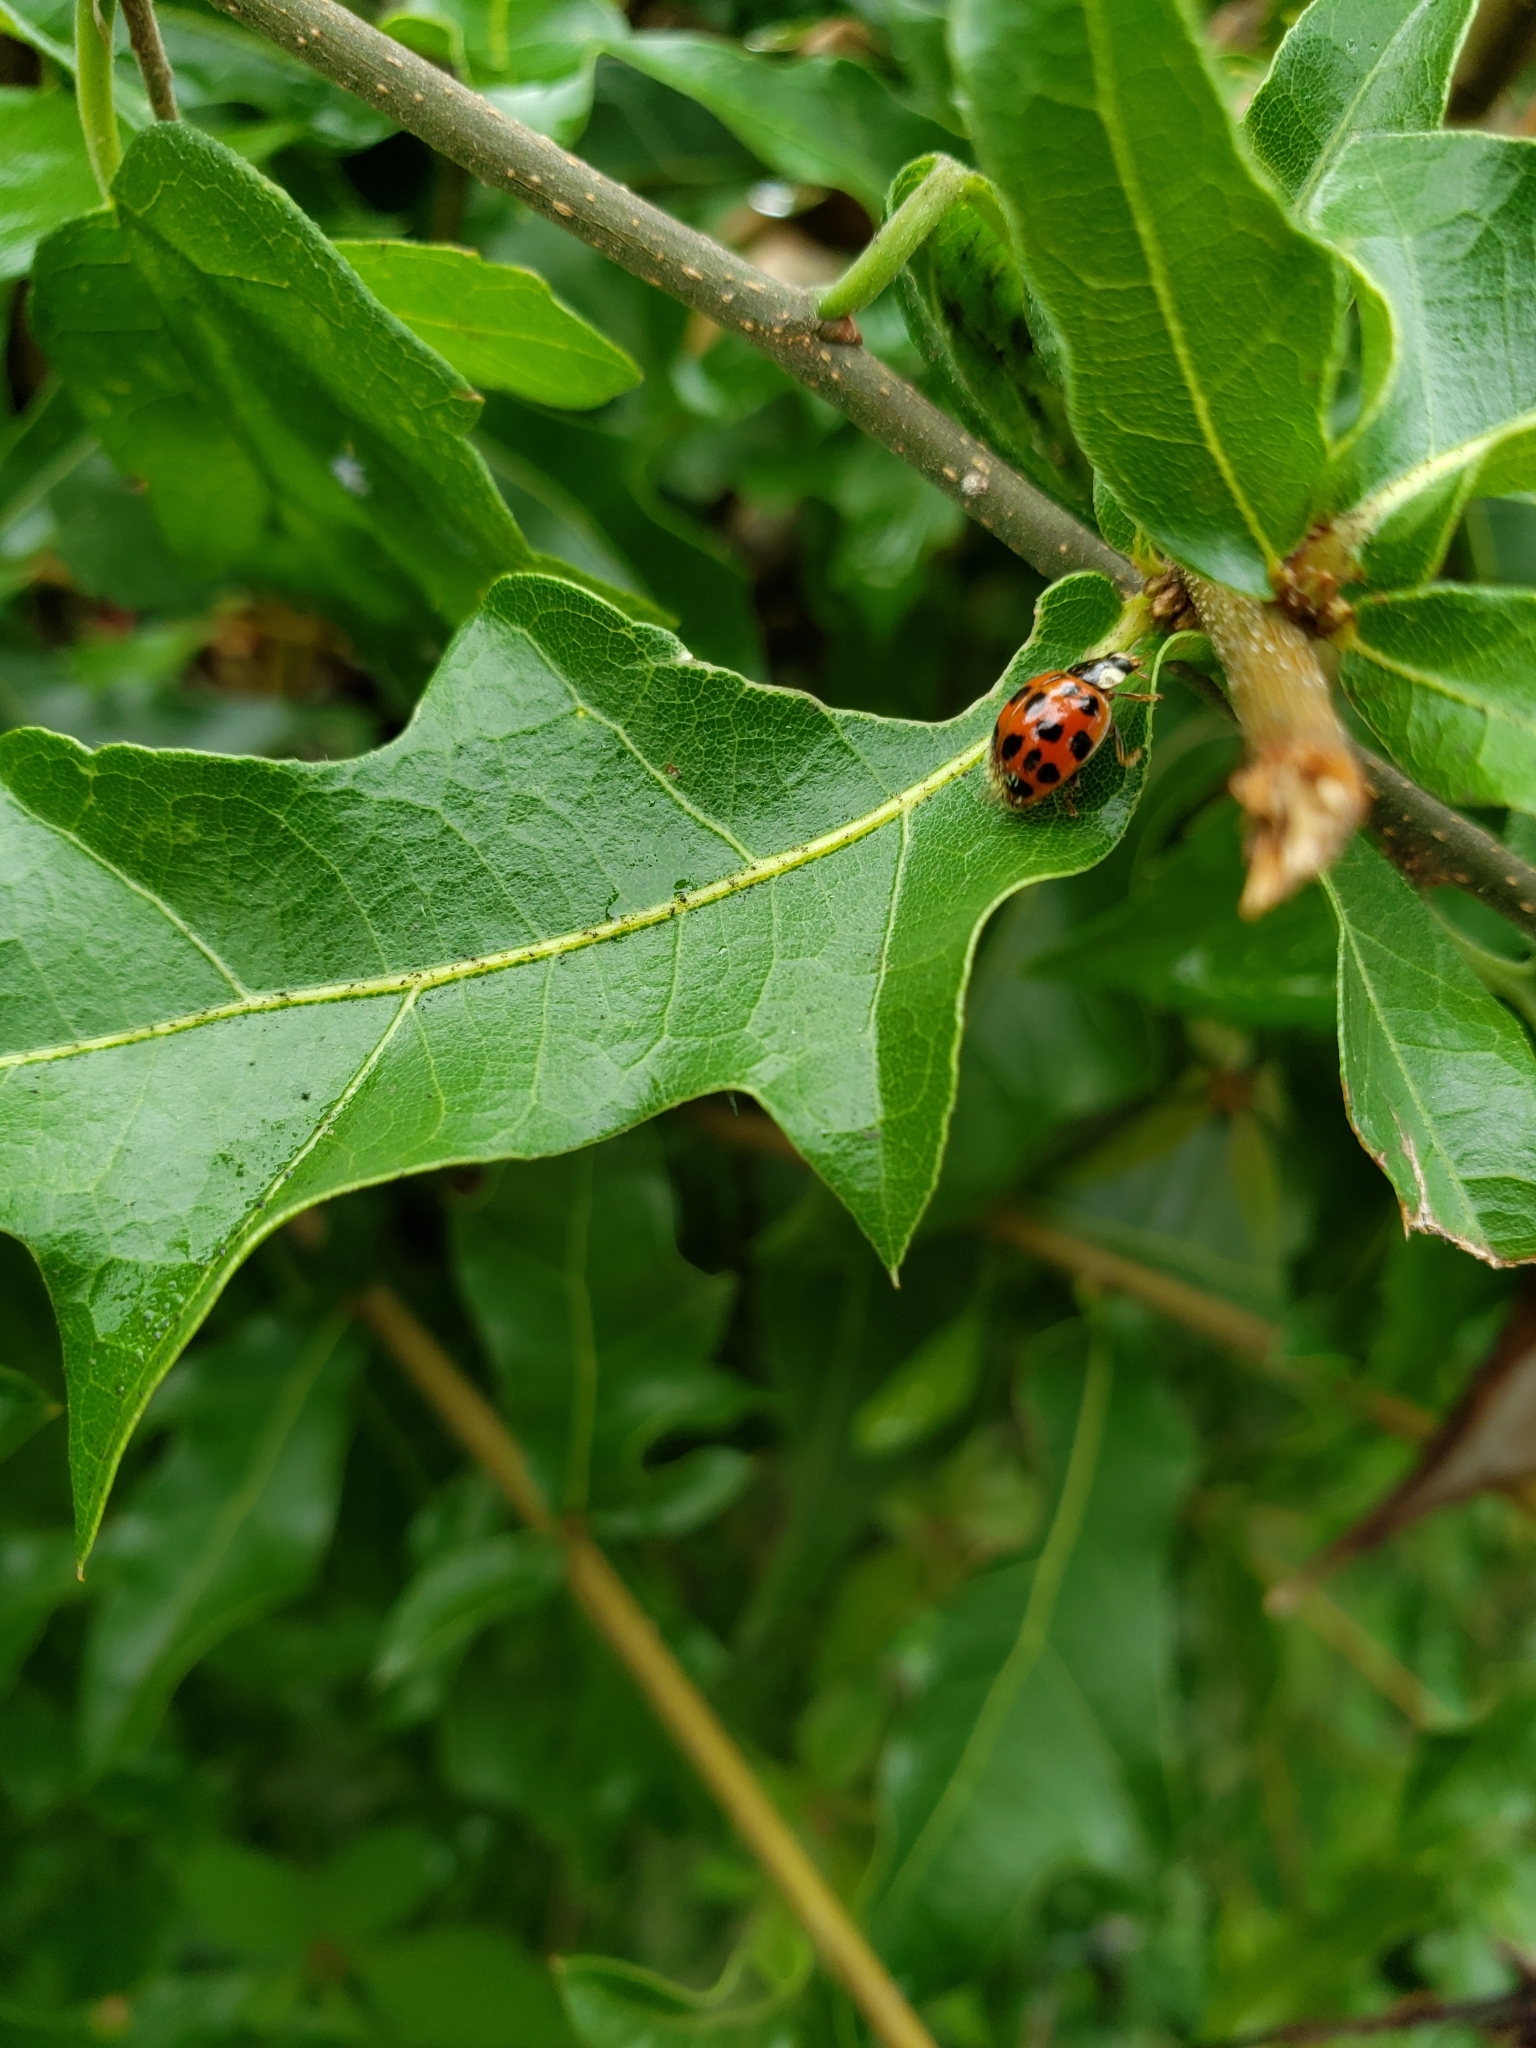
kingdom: Animalia
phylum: Arthropoda
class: Insecta
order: Coleoptera
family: Coccinellidae
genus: Harmonia
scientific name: Harmonia axyridis
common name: Harlequin ladybird
